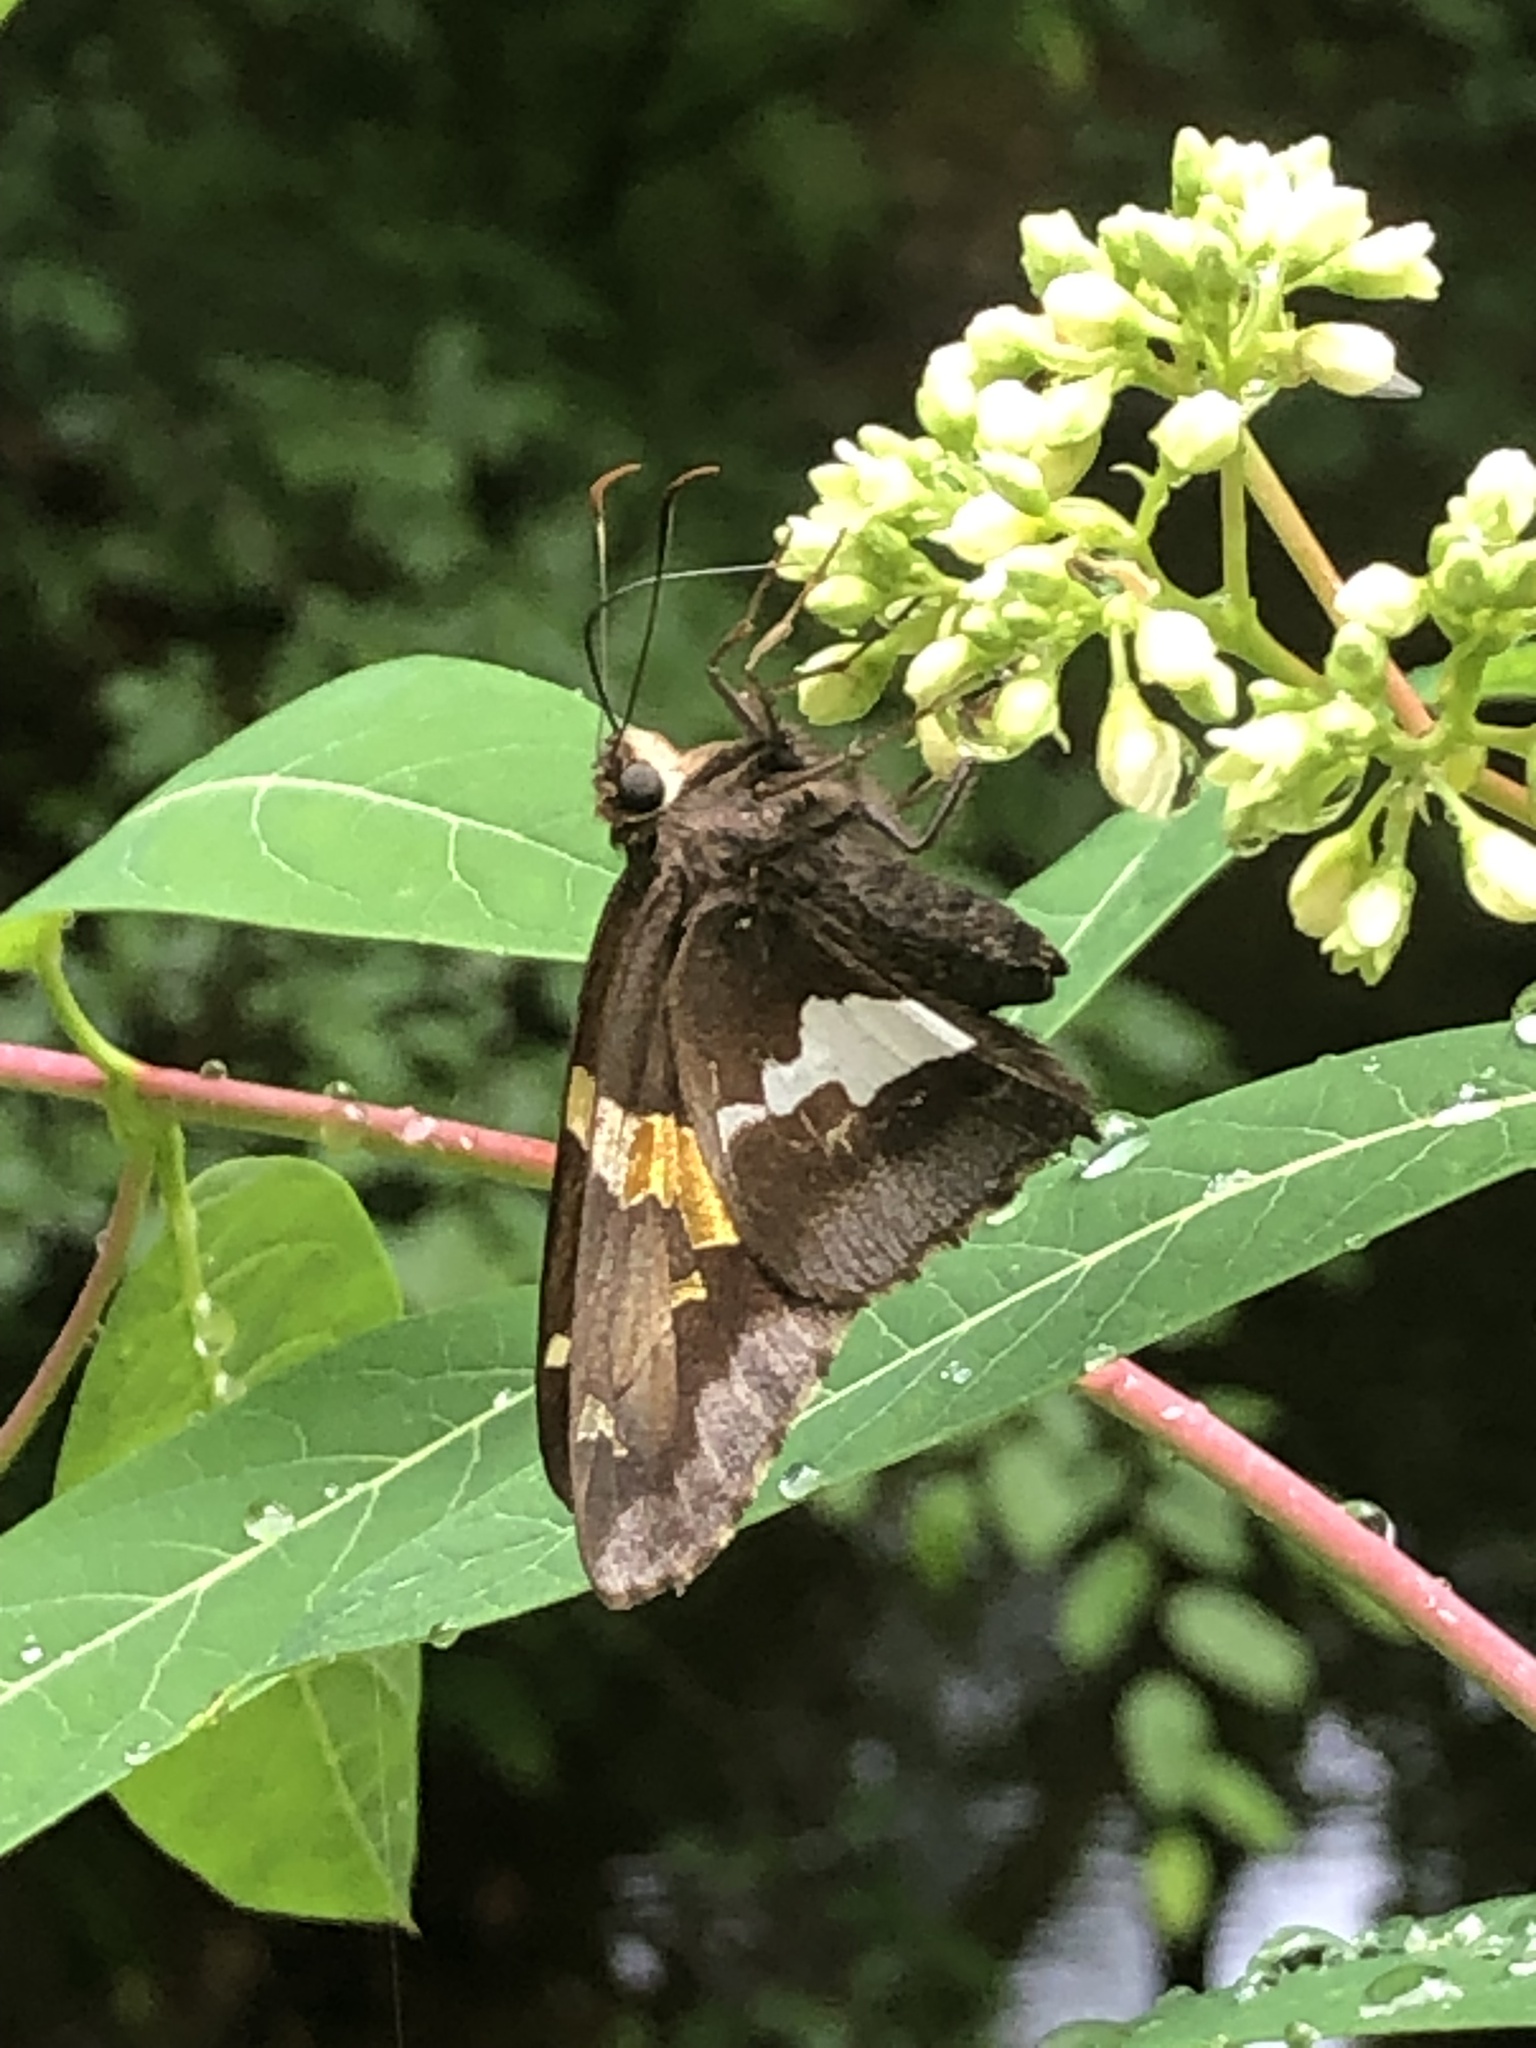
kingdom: Animalia
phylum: Arthropoda
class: Insecta
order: Lepidoptera
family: Hesperiidae
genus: Epargyreus
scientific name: Epargyreus clarus
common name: Silver-spotted skipper
